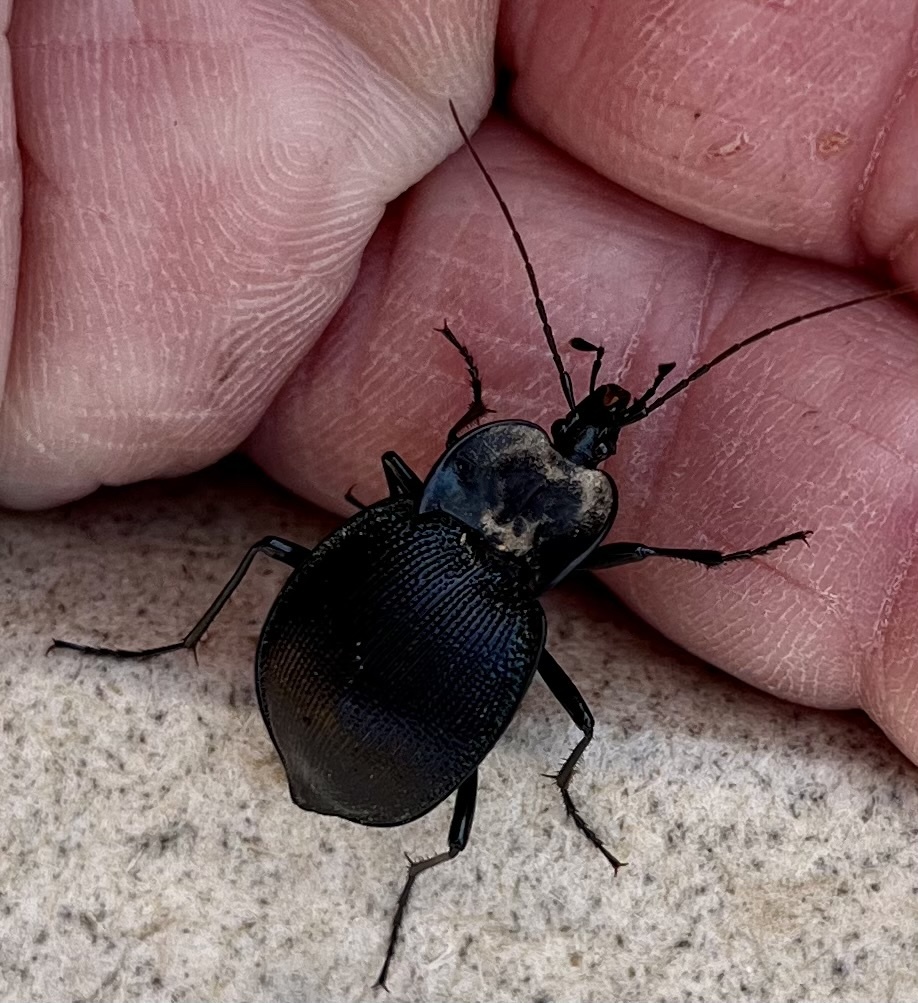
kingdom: Animalia
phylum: Arthropoda
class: Insecta
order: Coleoptera
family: Carabidae
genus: Scaphinotus
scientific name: Scaphinotus unicolor
